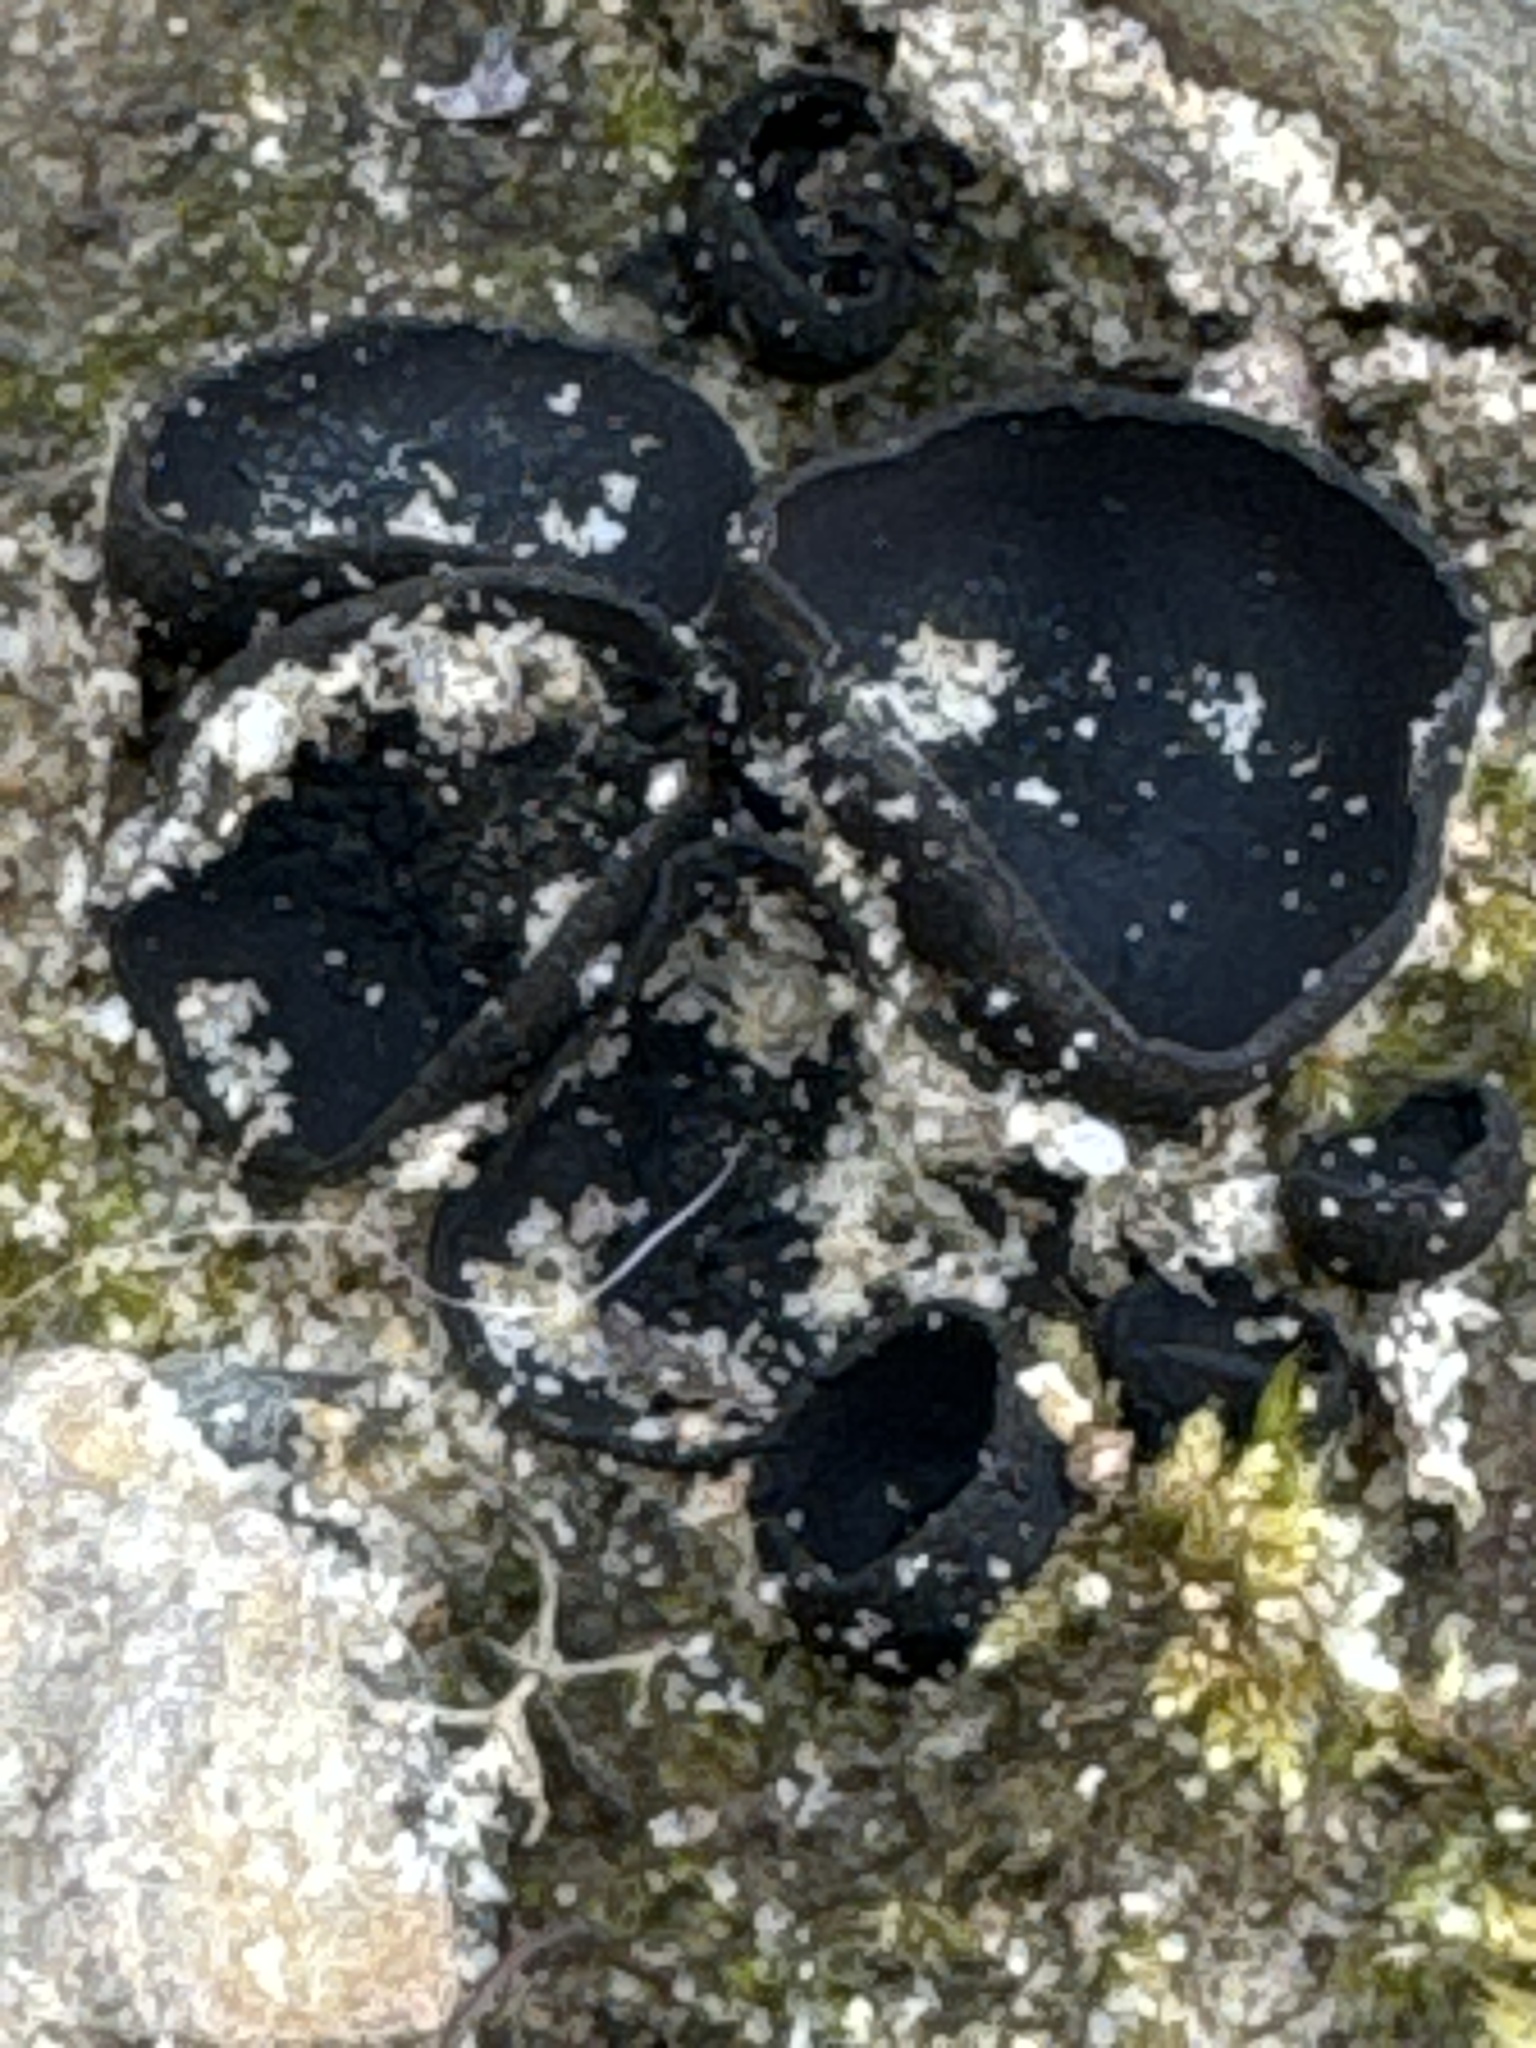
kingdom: Fungi
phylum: Ascomycota
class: Pezizomycetes
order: Pezizales
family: Sarcosomataceae
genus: Pseudoplectania
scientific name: Pseudoplectania nigrella
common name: Ebony cup
